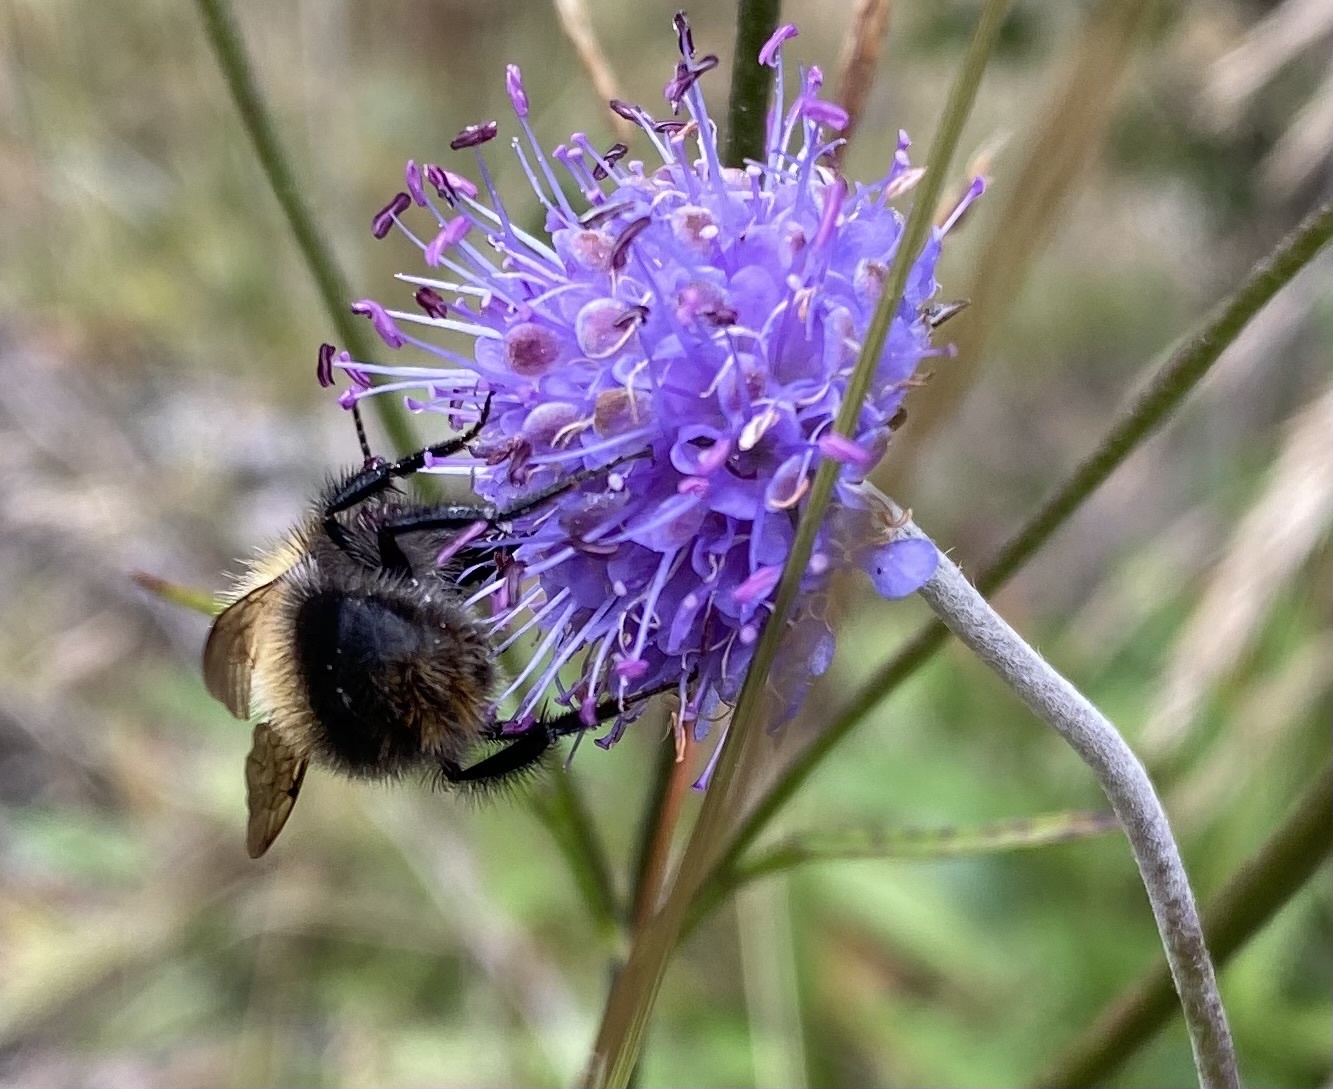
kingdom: Animalia
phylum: Arthropoda
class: Insecta
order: Hymenoptera
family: Apidae
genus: Bombus
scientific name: Bombus pascuorum
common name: Common carder bee
